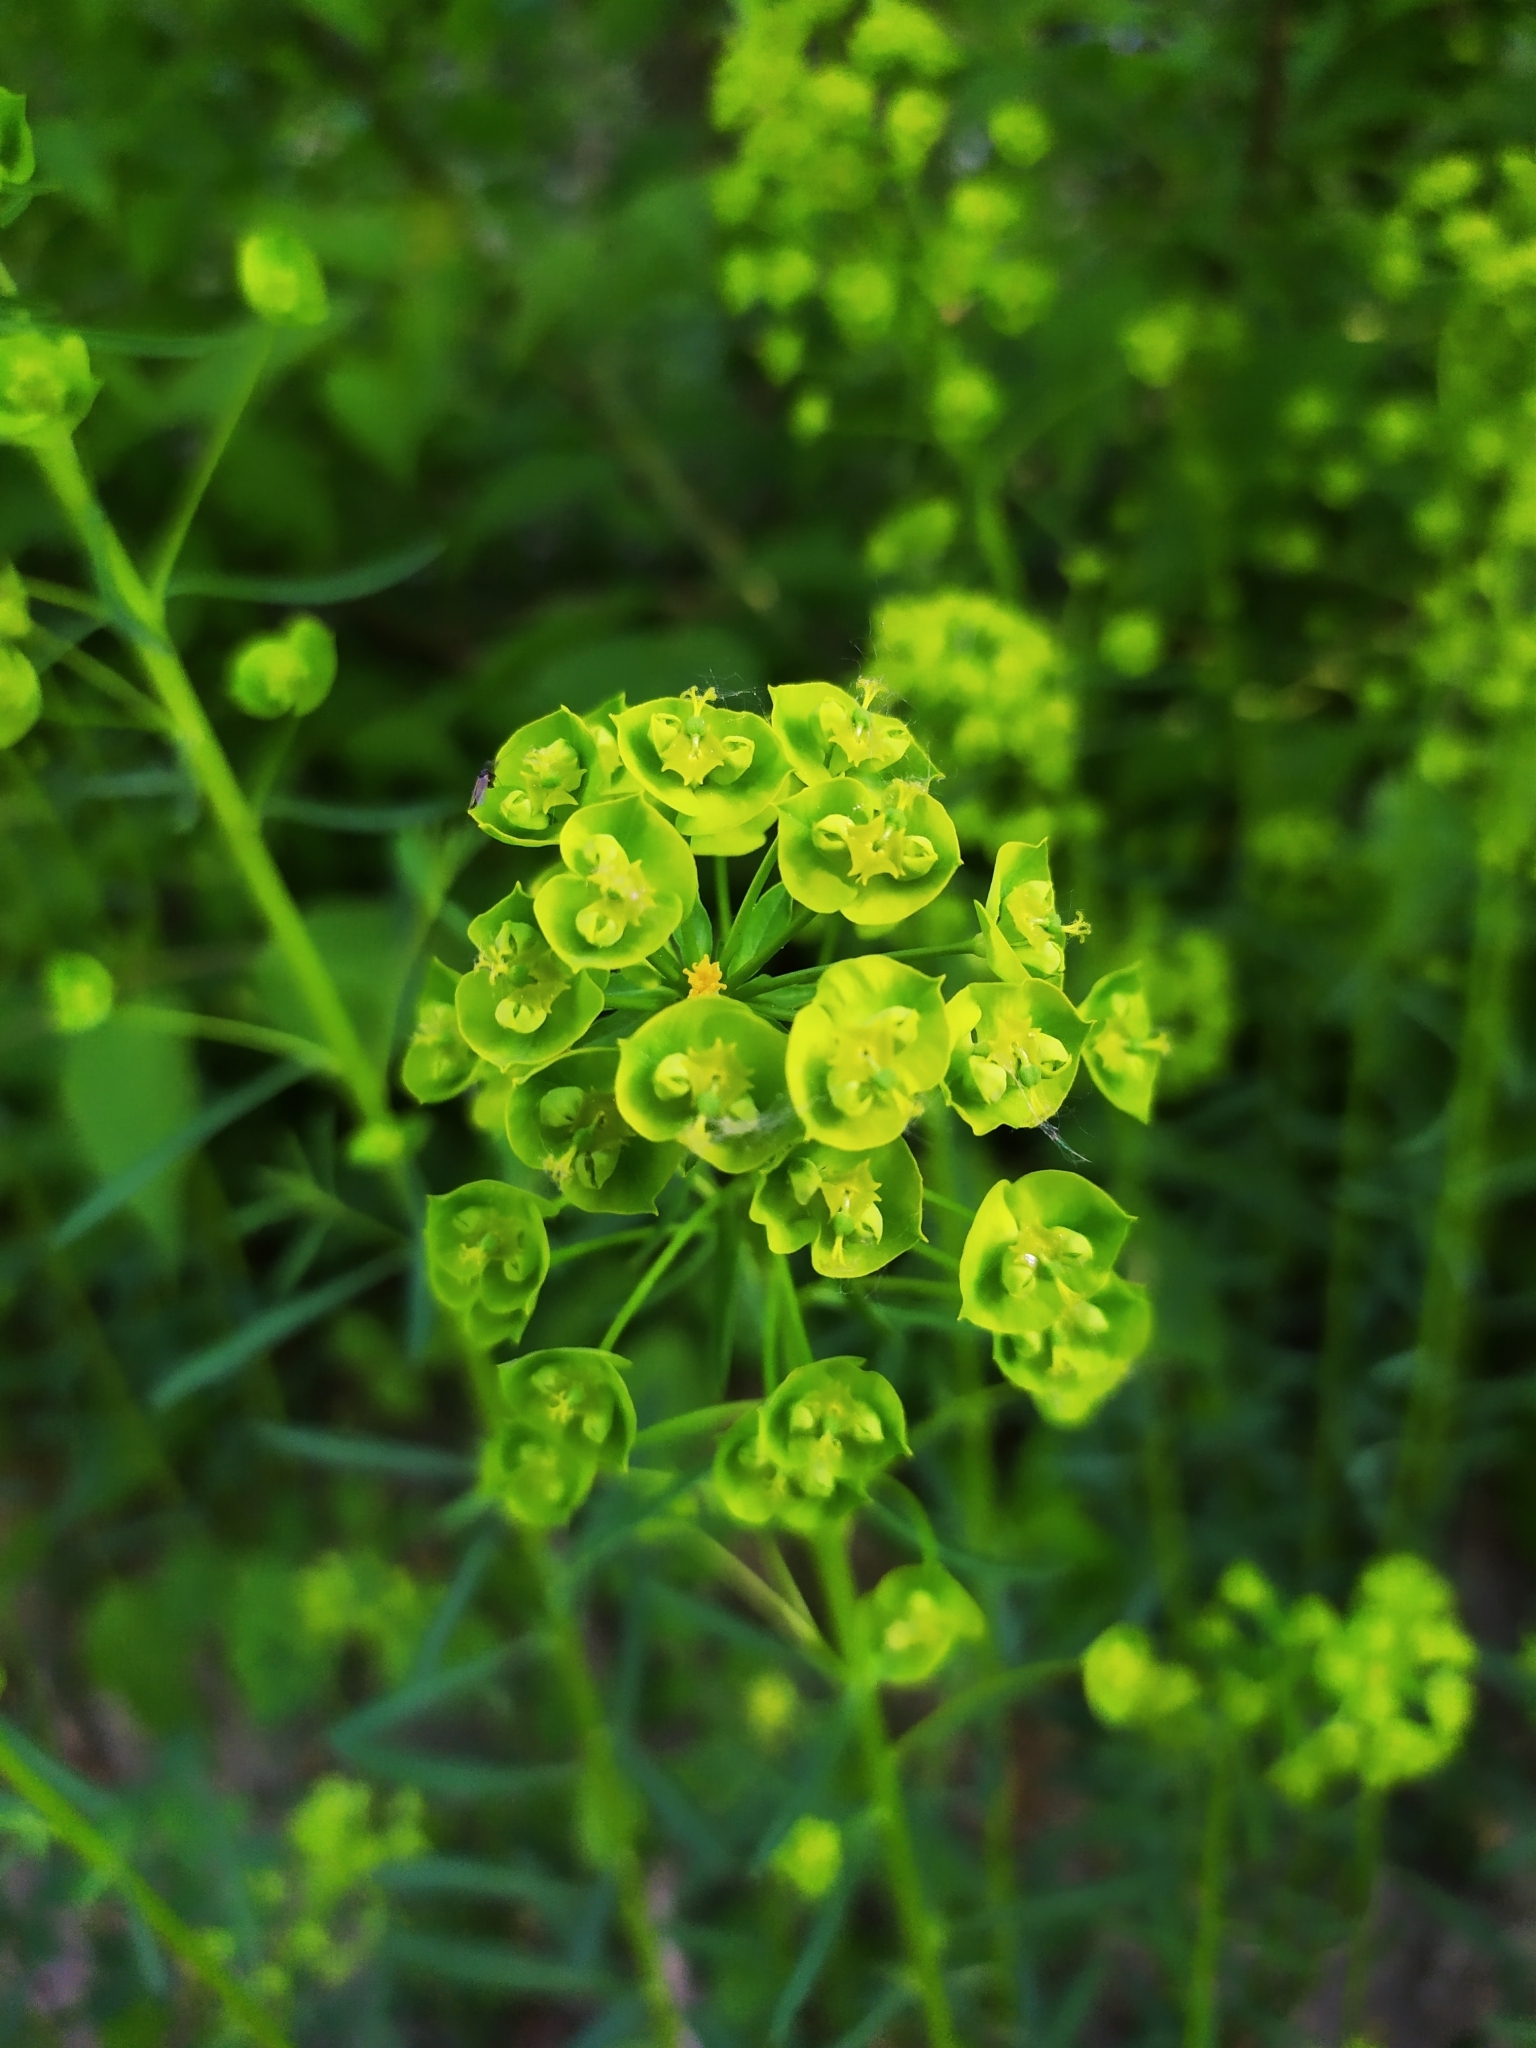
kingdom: Plantae
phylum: Tracheophyta
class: Magnoliopsida
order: Malpighiales
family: Euphorbiaceae
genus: Euphorbia
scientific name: Euphorbia esula
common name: Leafy spurge
